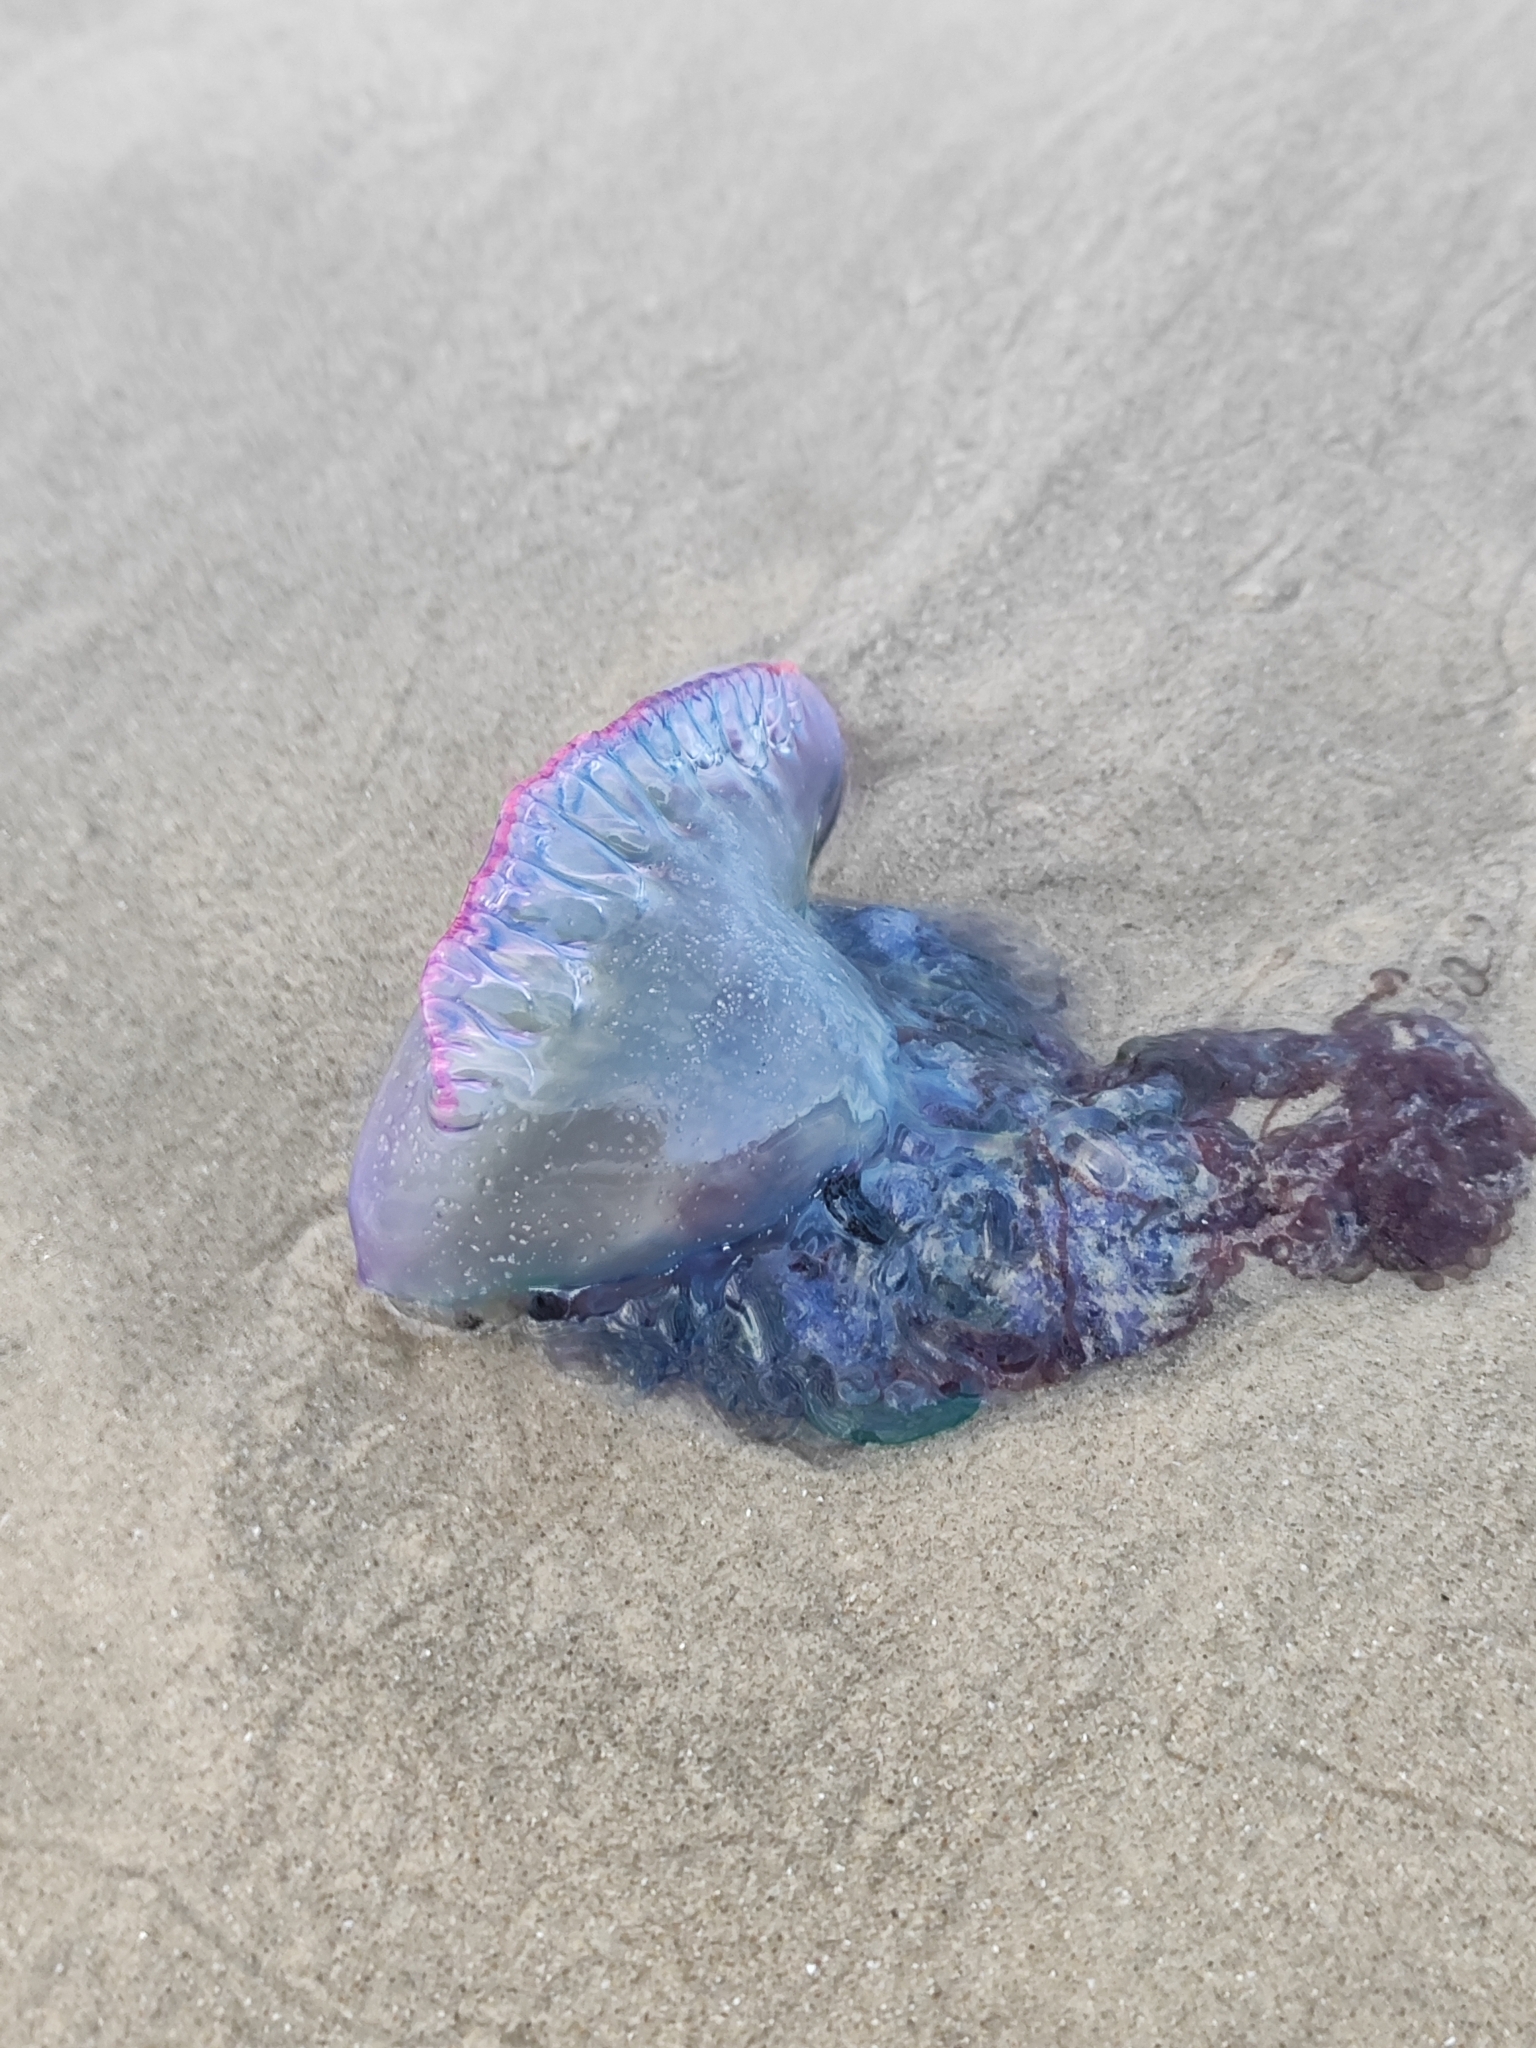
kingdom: Animalia
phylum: Cnidaria
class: Hydrozoa
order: Siphonophorae
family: Physaliidae
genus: Physalia
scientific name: Physalia physalis
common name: Portuguese man-of-war
